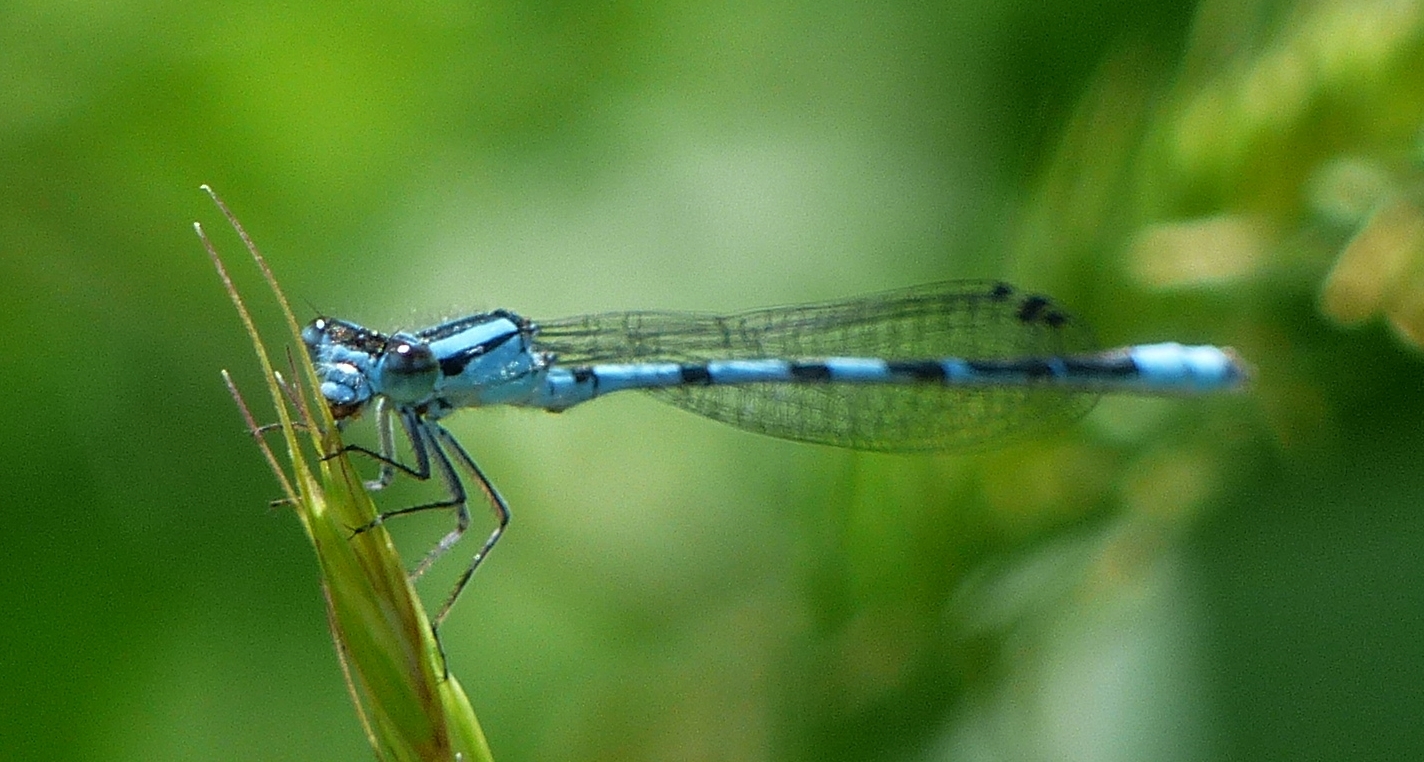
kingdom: Animalia
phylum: Arthropoda
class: Insecta
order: Odonata
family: Coenagrionidae
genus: Enallagma
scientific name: Enallagma ebrium
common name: Marsh bluet
